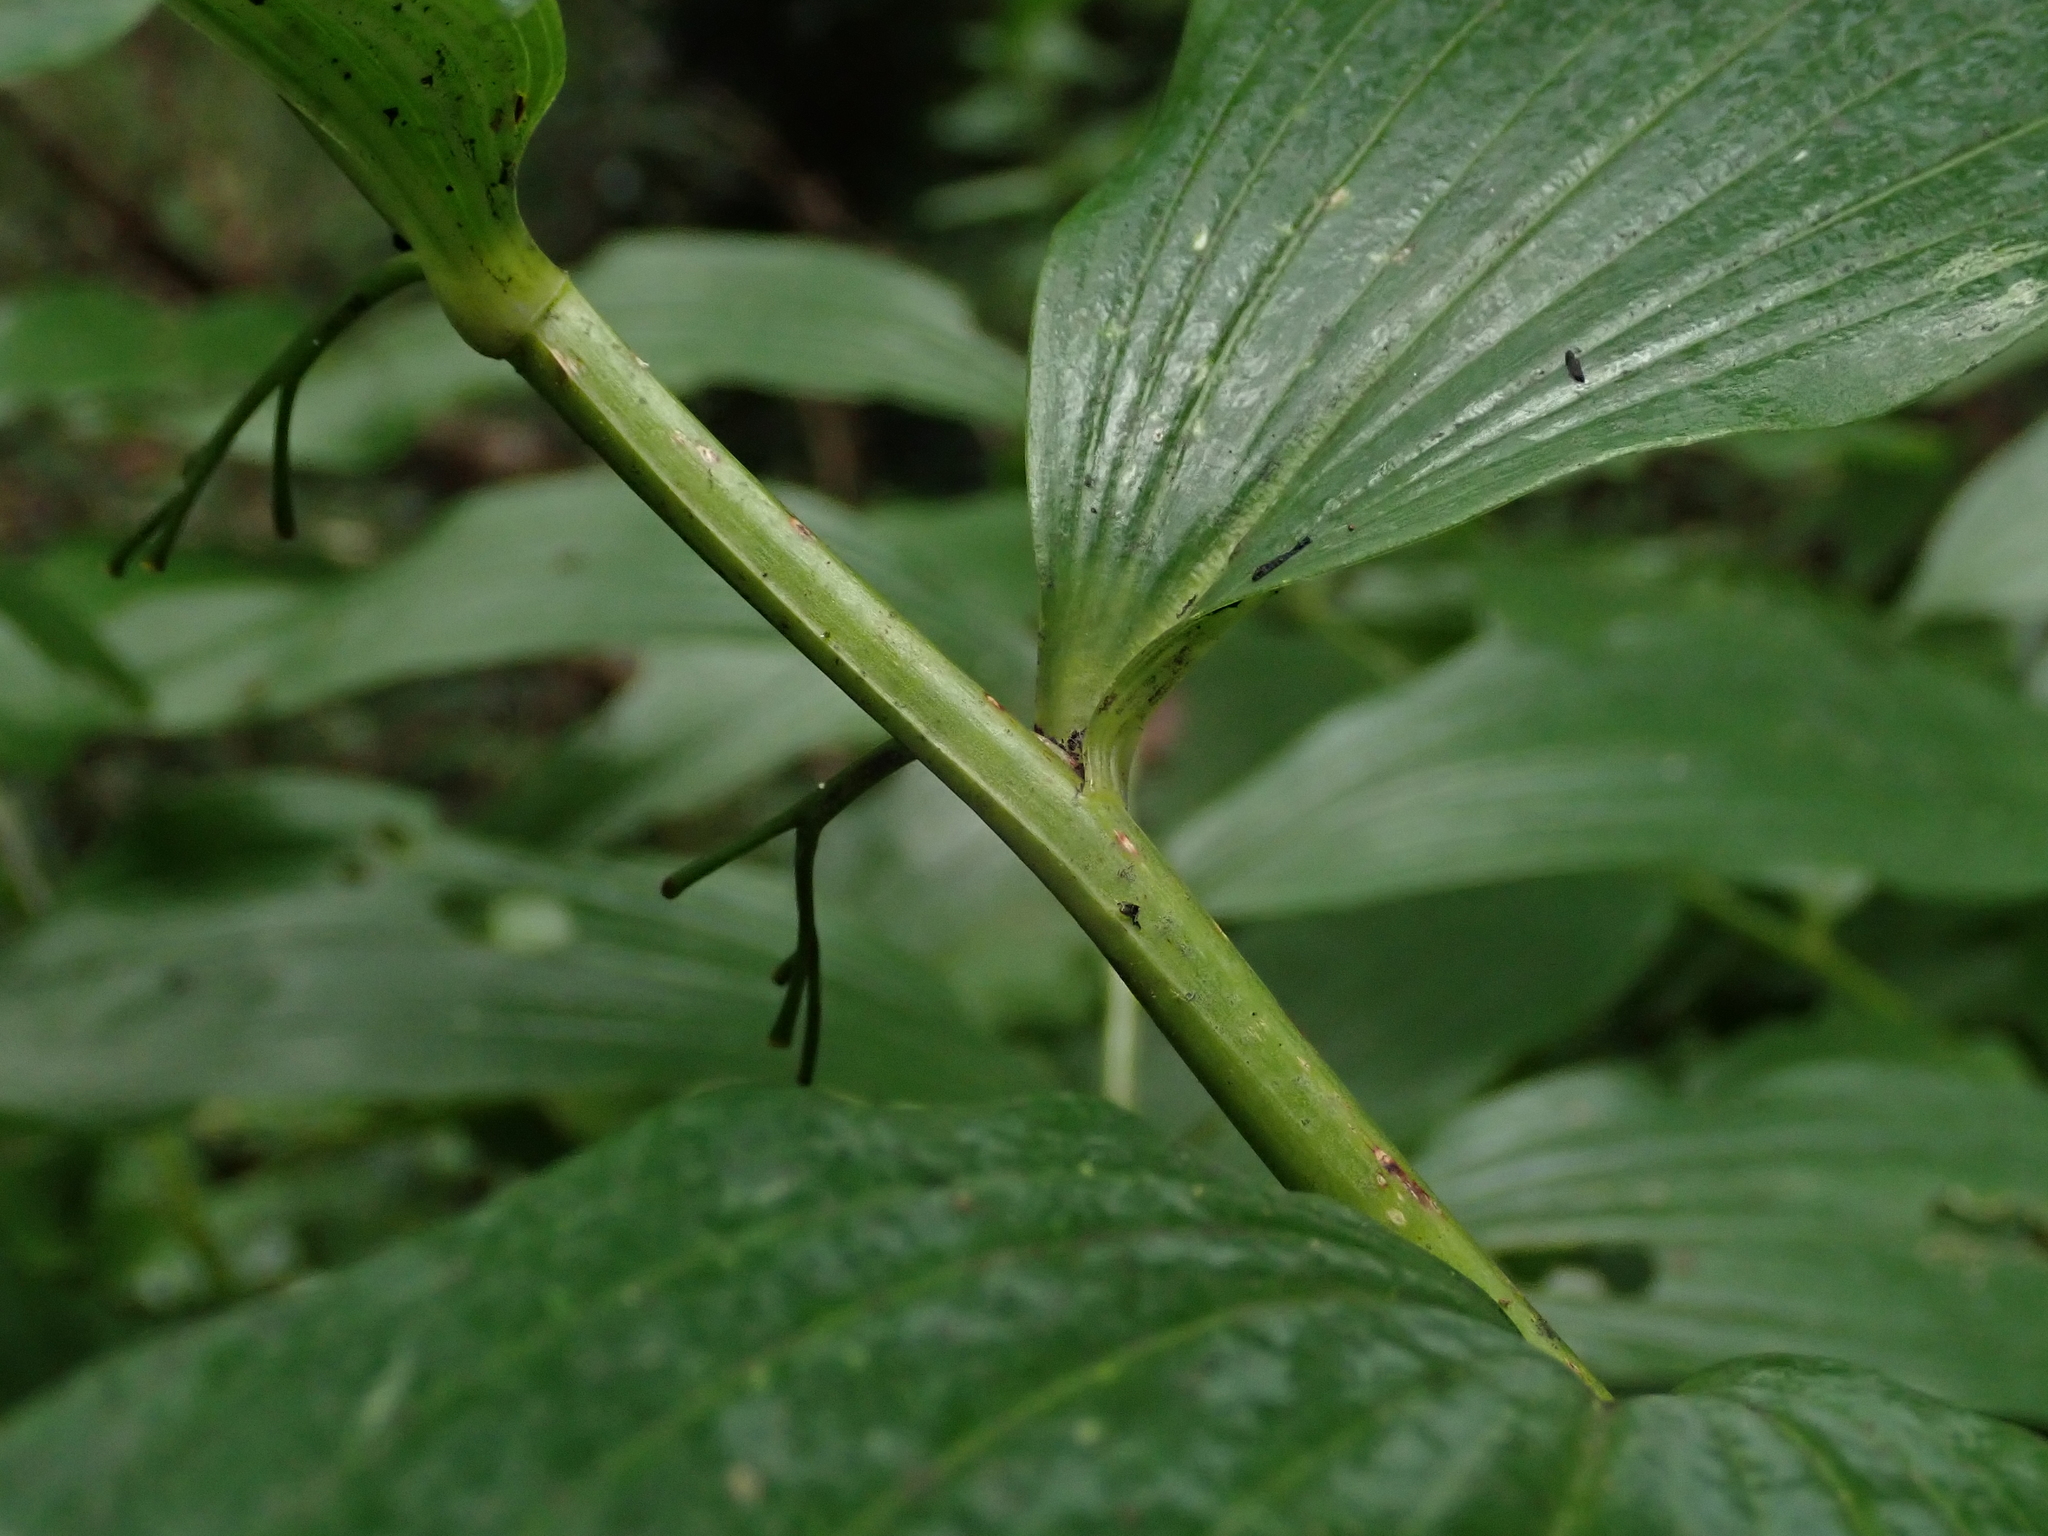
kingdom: Plantae
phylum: Tracheophyta
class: Liliopsida
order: Asparagales
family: Asparagaceae
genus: Polygonatum
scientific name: Polygonatum hybridum
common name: Garden solomon's-seal
